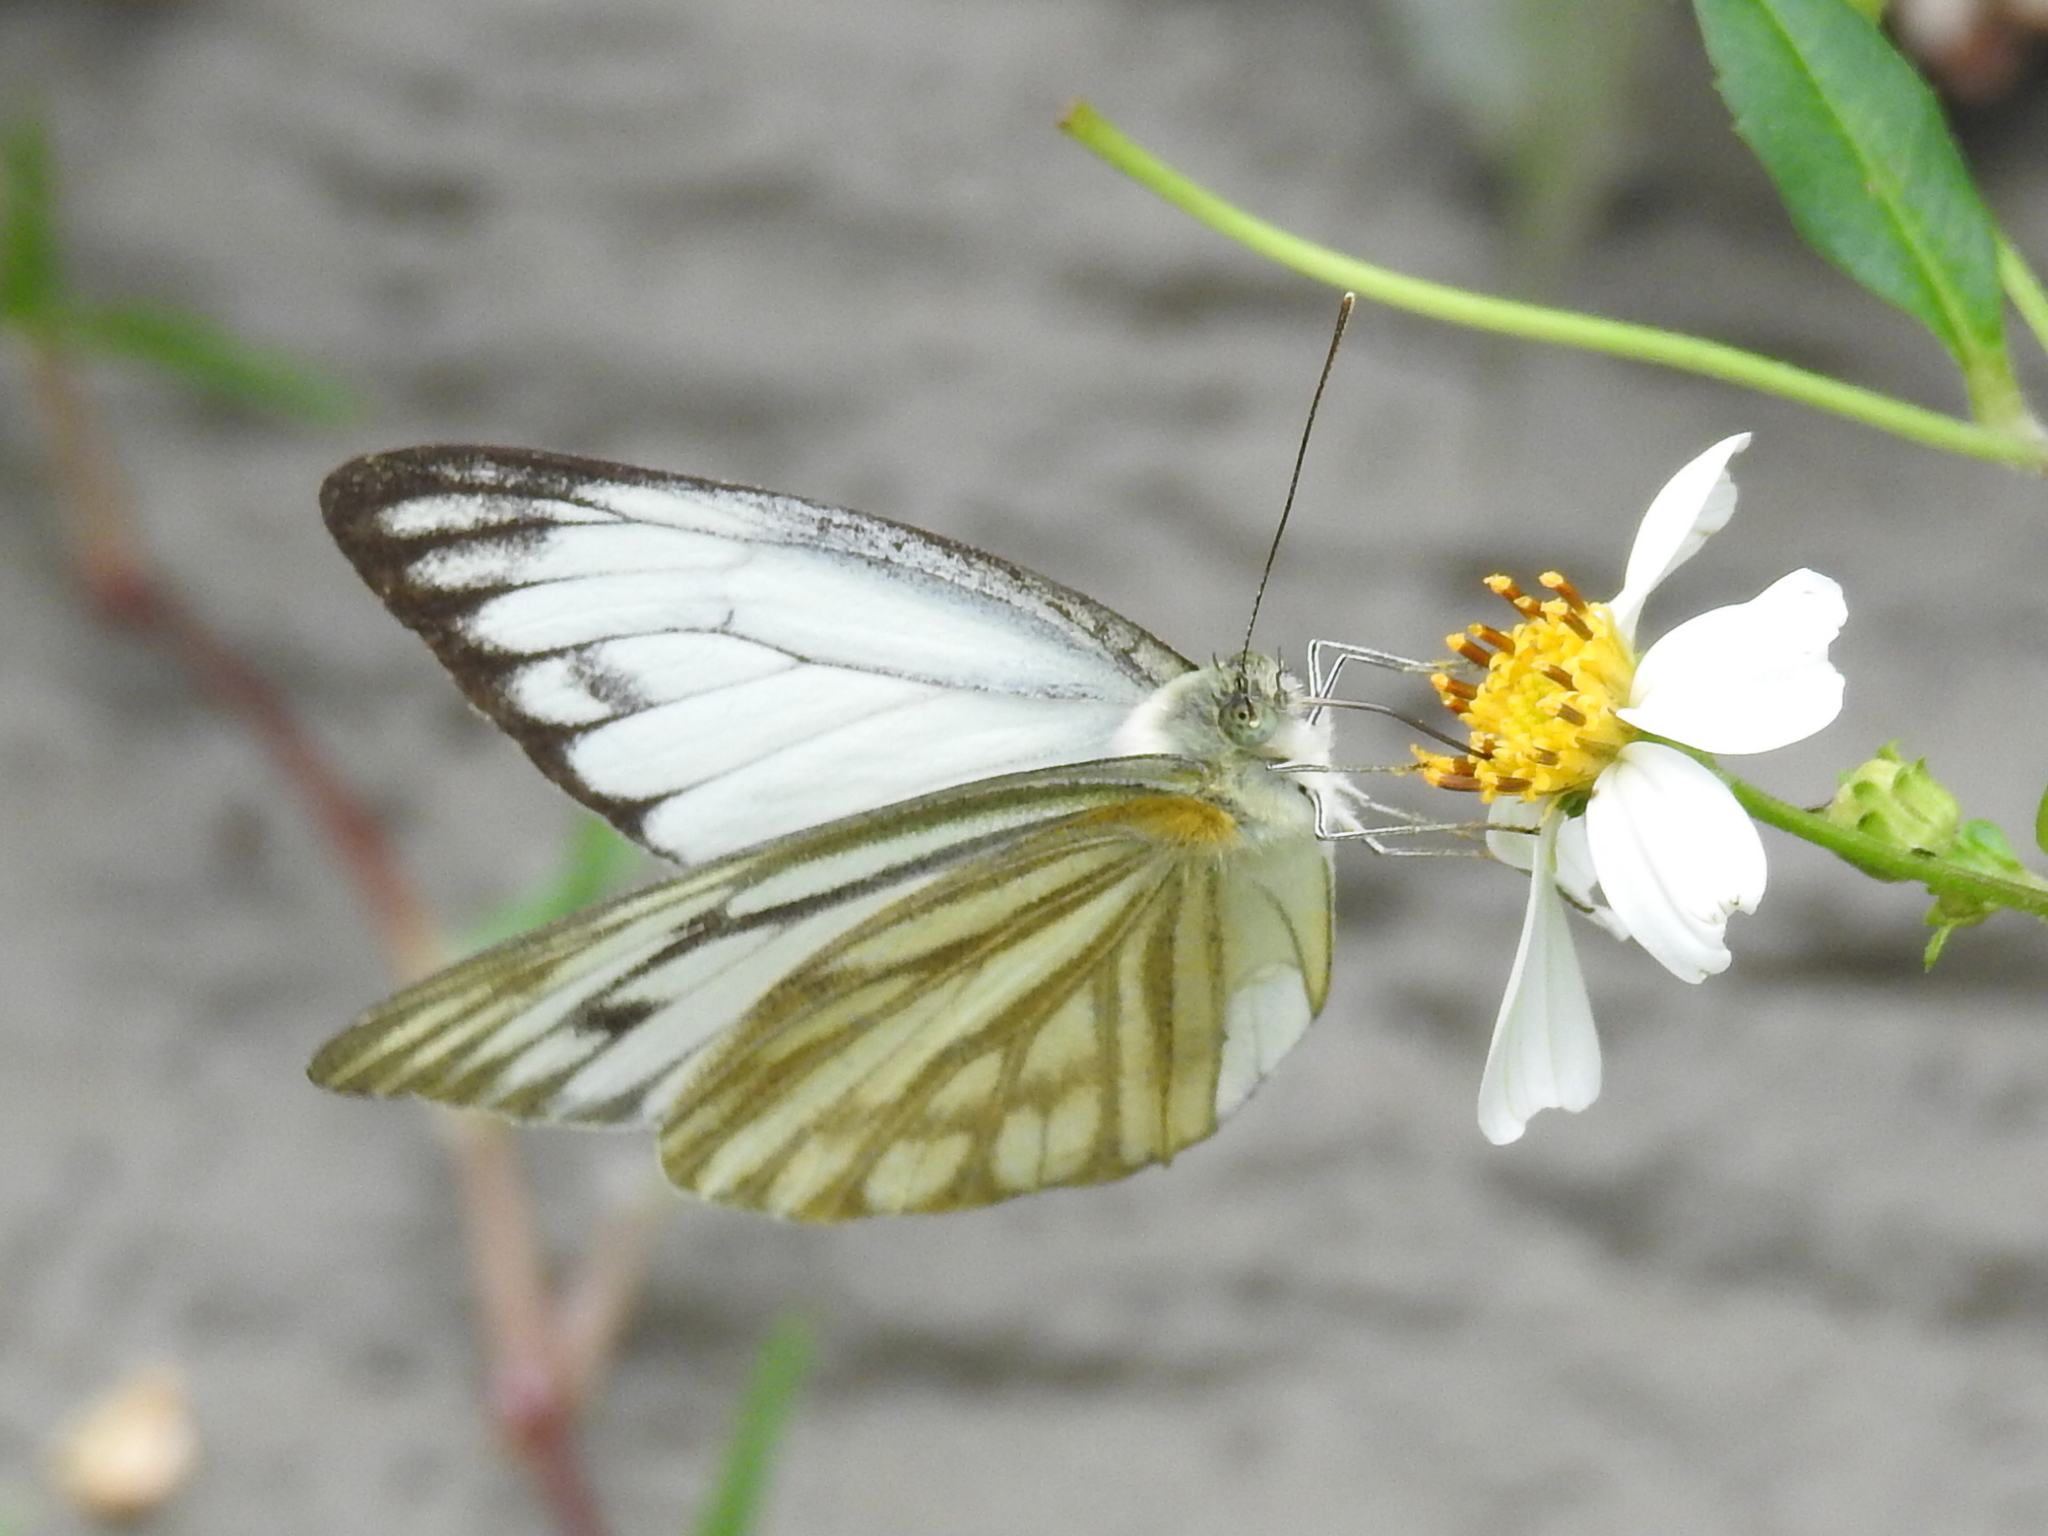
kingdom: Animalia
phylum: Arthropoda
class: Insecta
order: Lepidoptera
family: Pieridae
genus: Cepora
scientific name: Cepora nerissa
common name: Common gull
